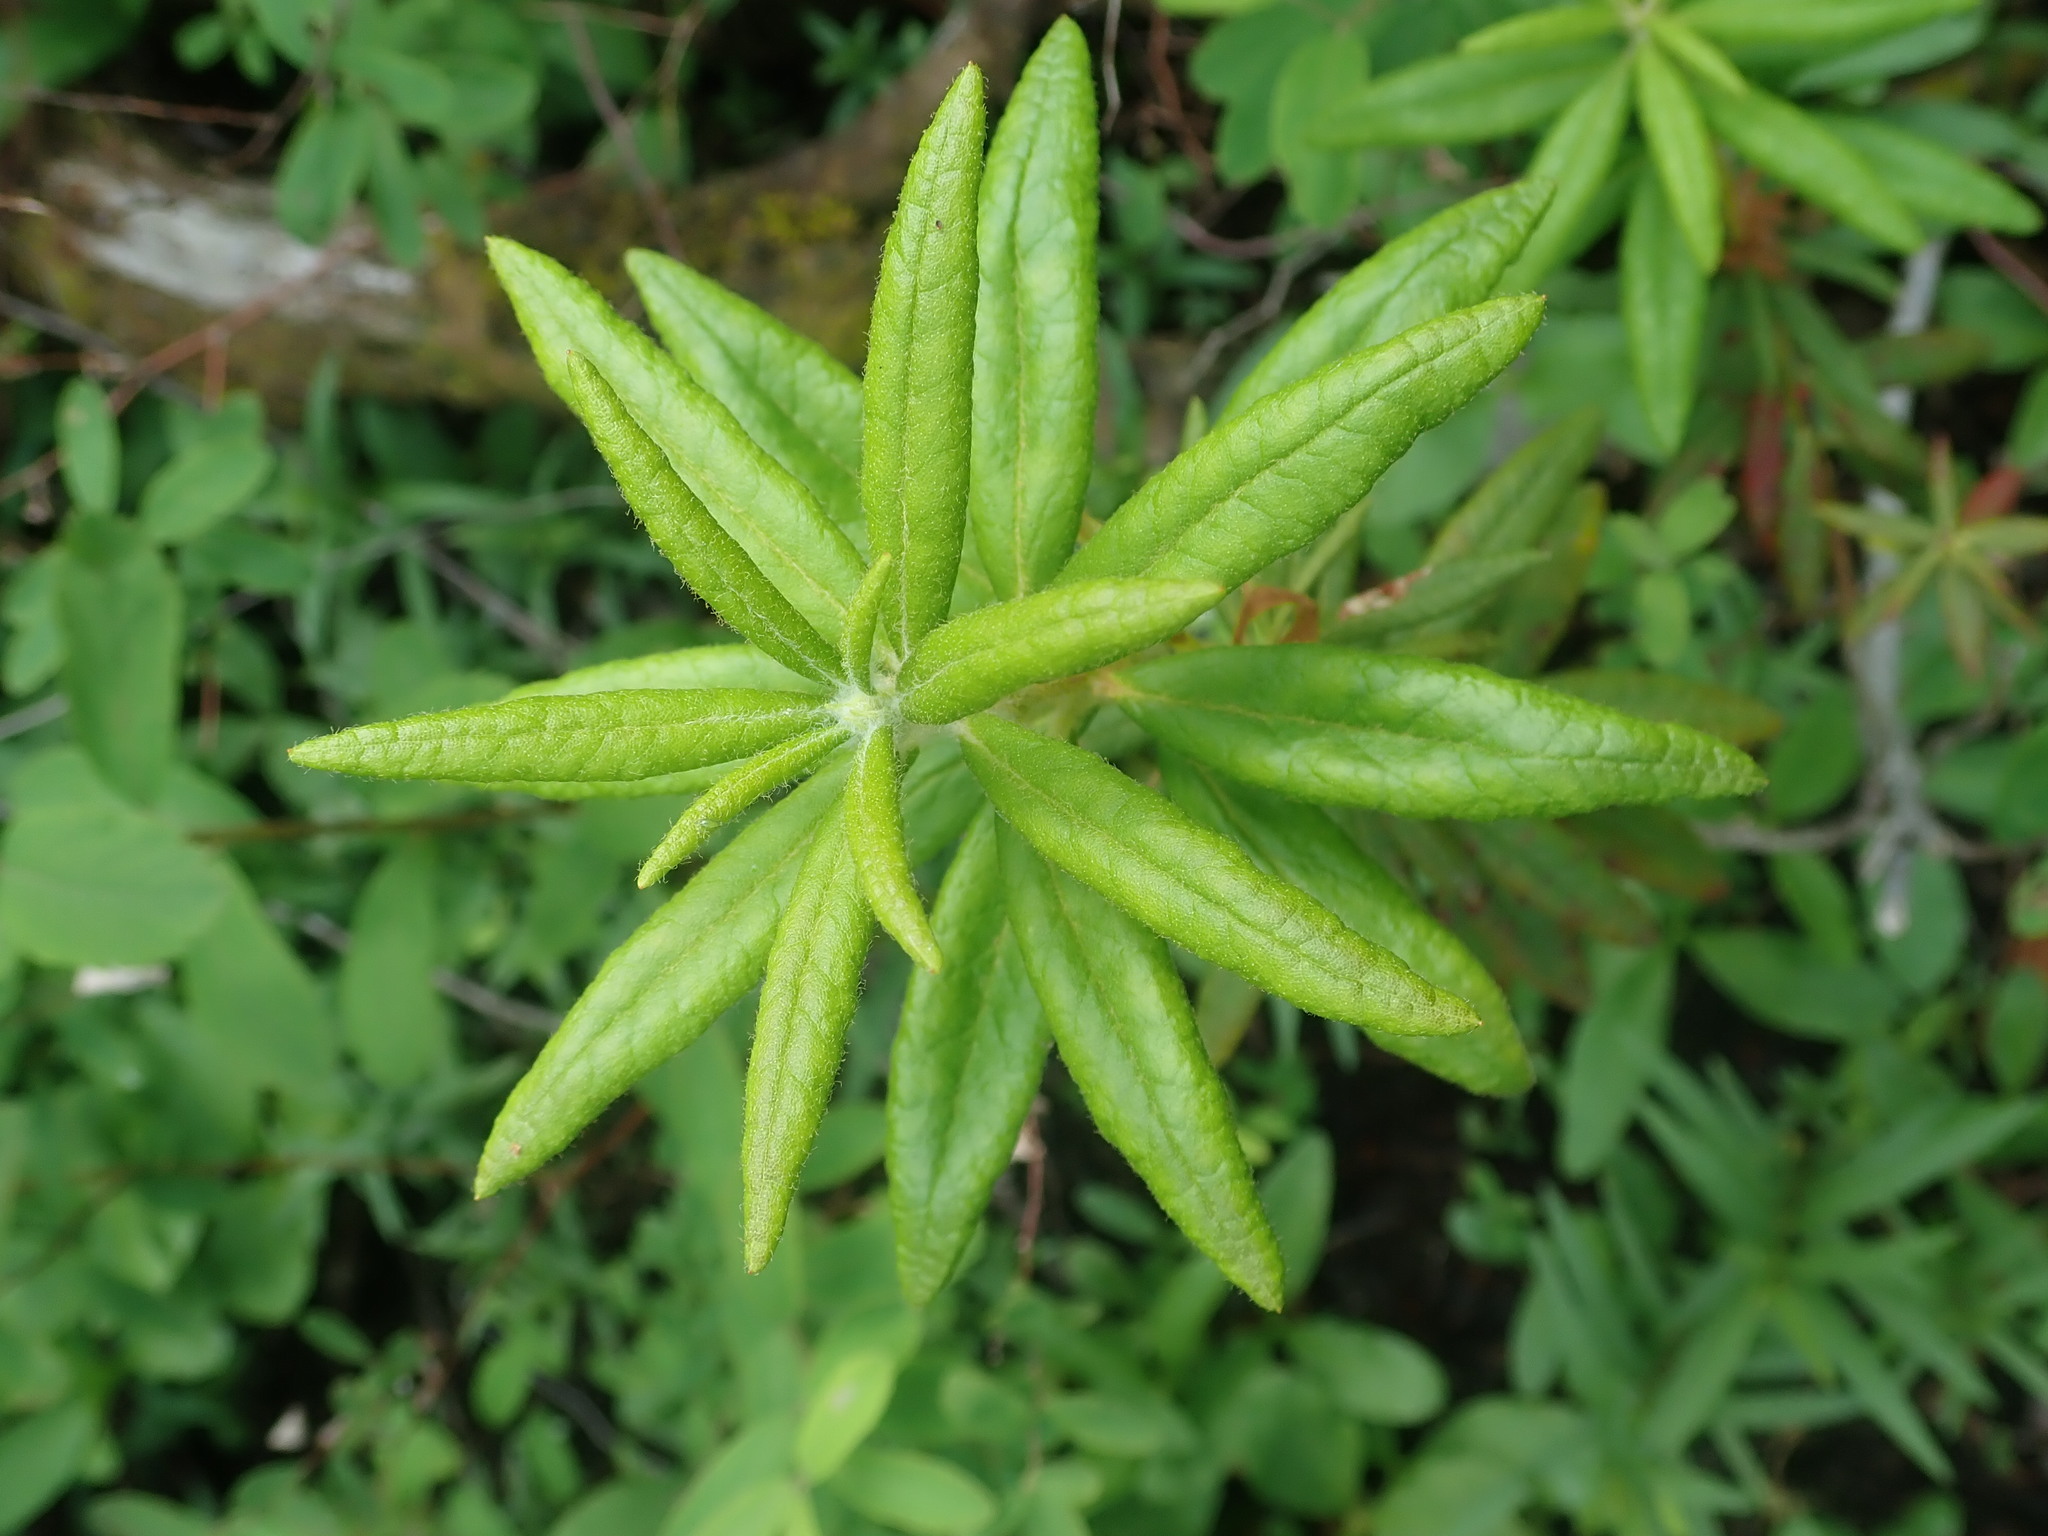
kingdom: Plantae
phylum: Tracheophyta
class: Magnoliopsida
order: Ericales
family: Ericaceae
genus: Rhododendron
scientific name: Rhododendron groenlandicum
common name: Bog labrador tea
